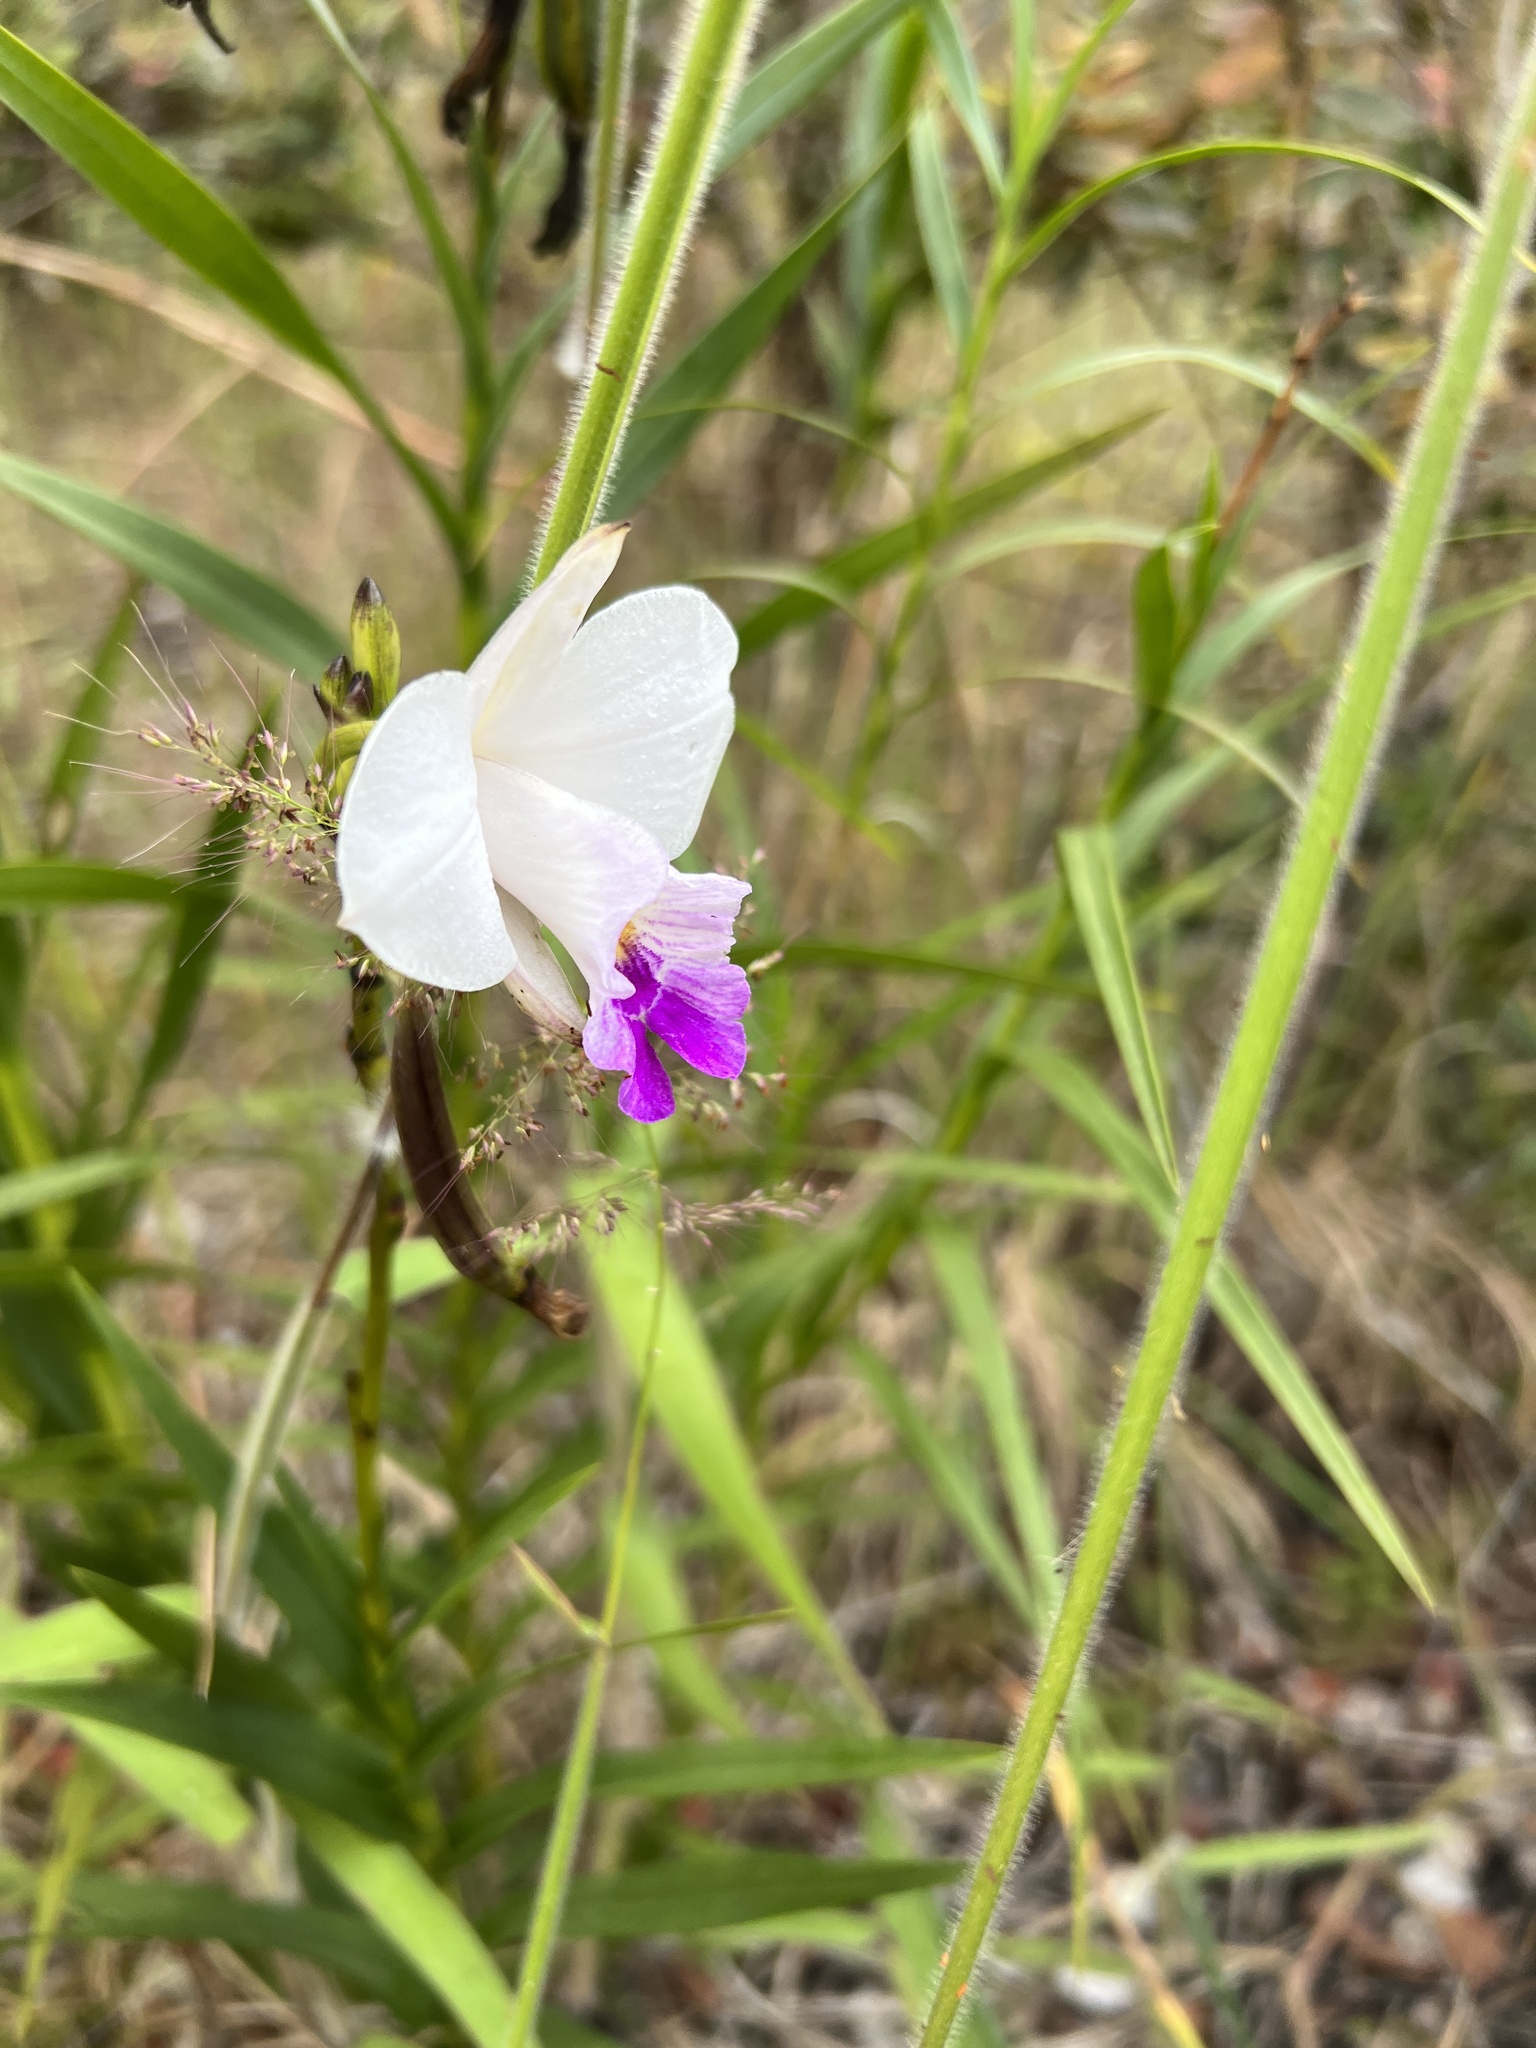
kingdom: Plantae
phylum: Tracheophyta
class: Liliopsida
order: Asparagales
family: Orchidaceae
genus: Arundina
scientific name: Arundina graminifolia
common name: Bamboo orchid
